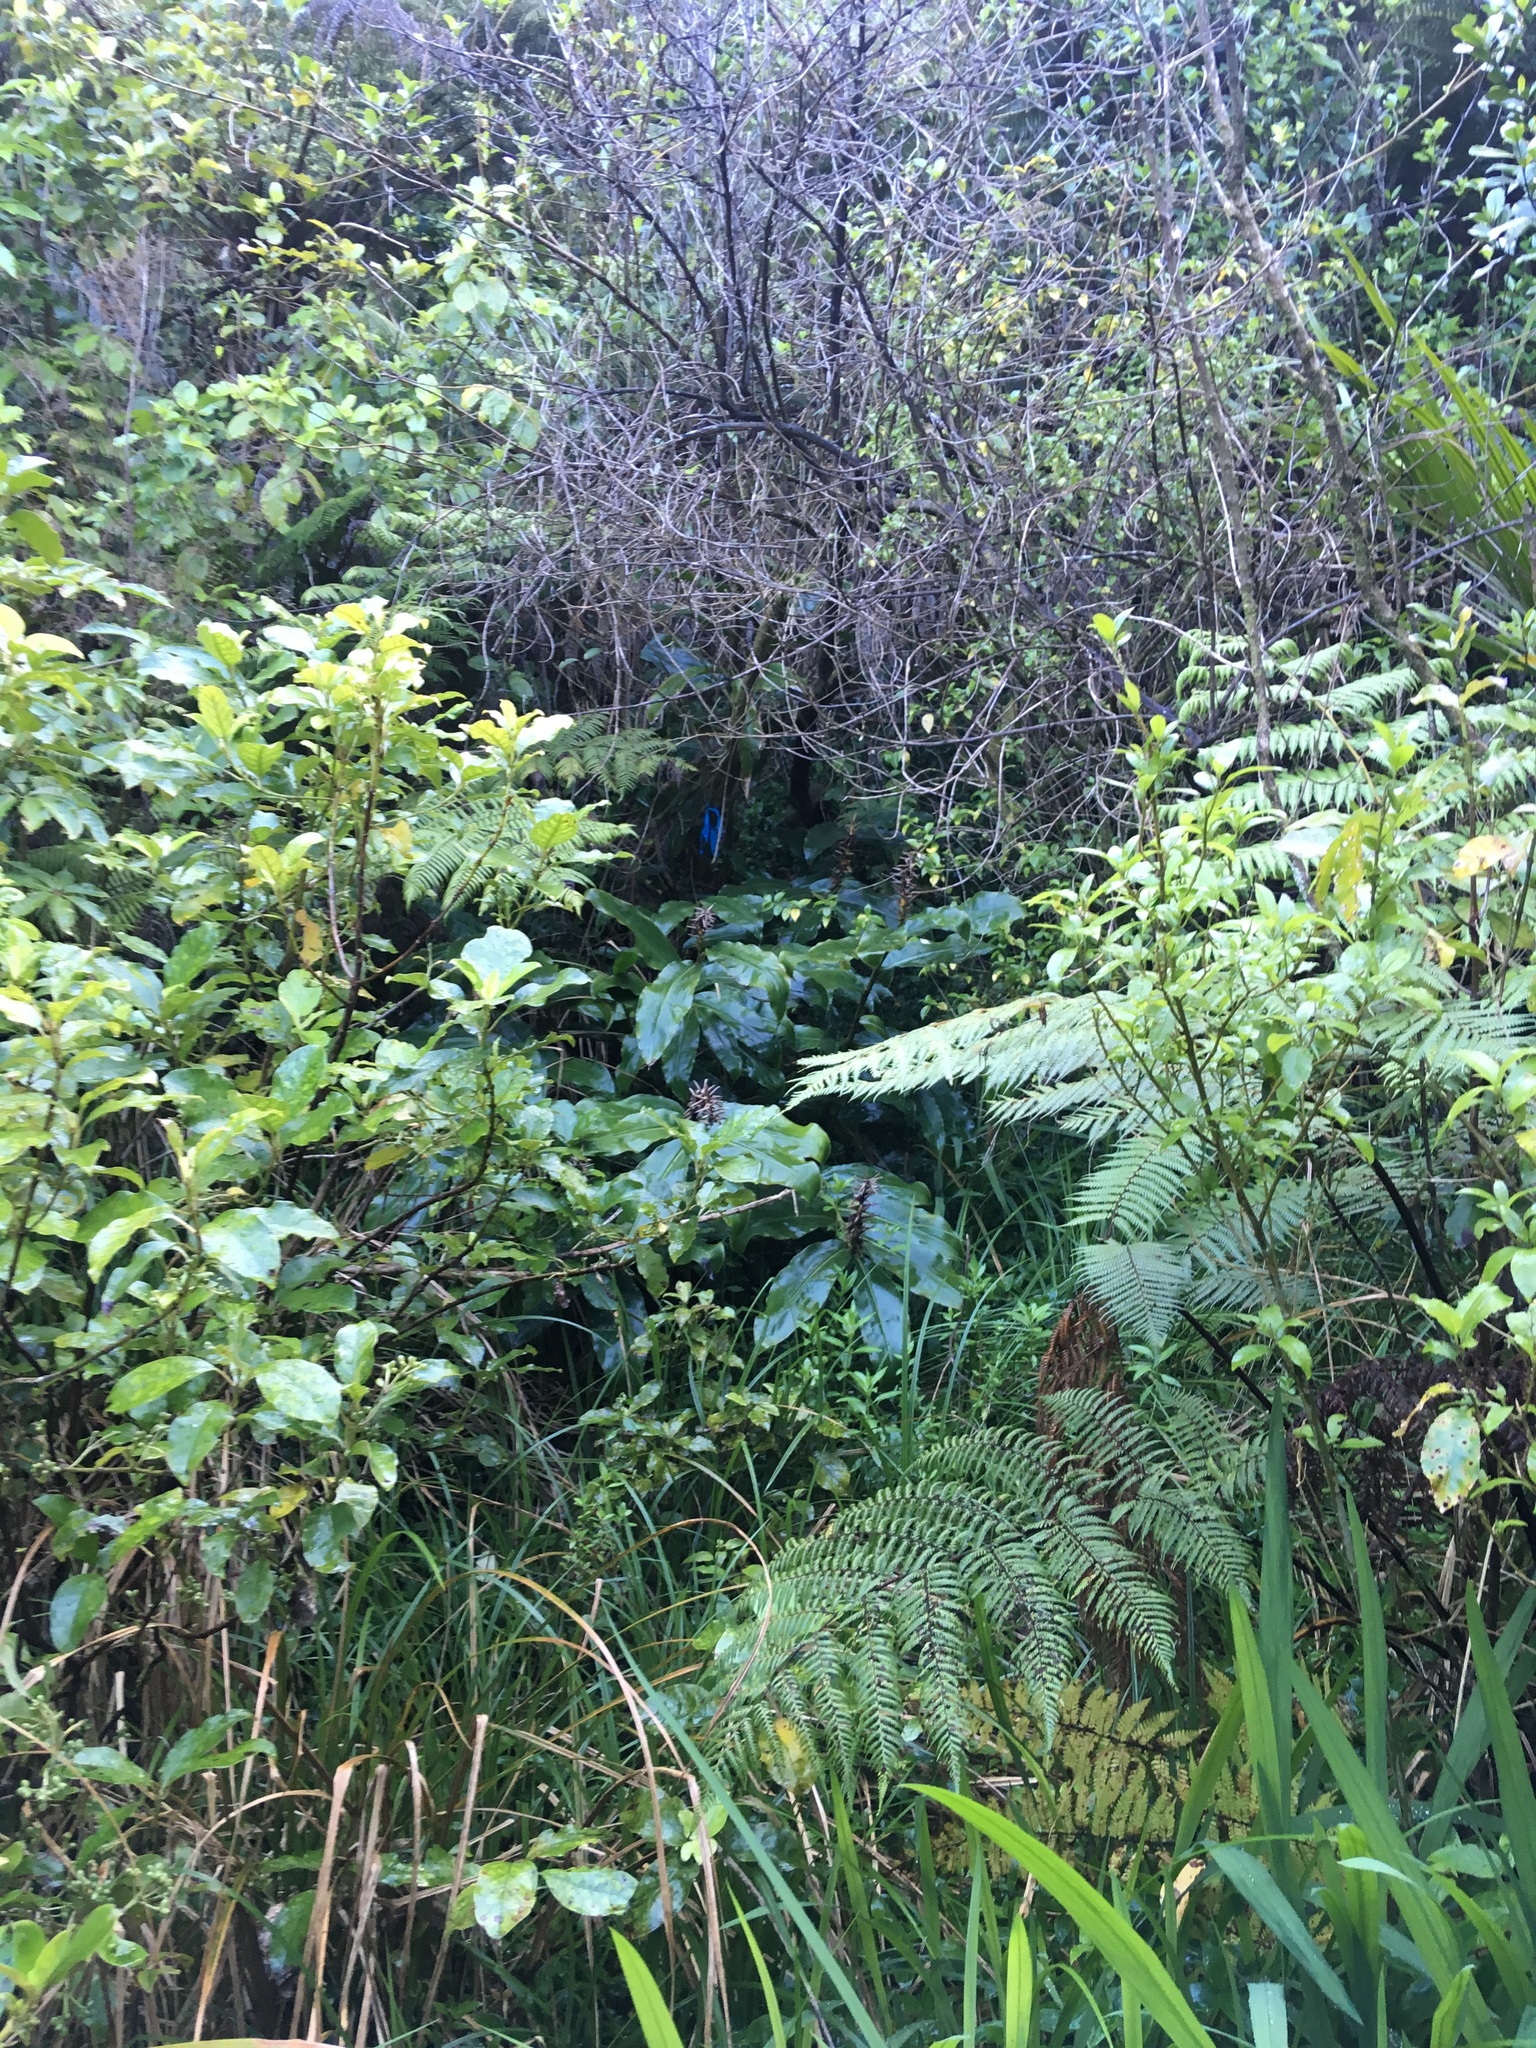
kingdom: Plantae
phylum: Tracheophyta
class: Liliopsida
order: Zingiberales
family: Zingiberaceae
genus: Hedychium
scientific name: Hedychium gardnerianum
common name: Himalayan ginger
